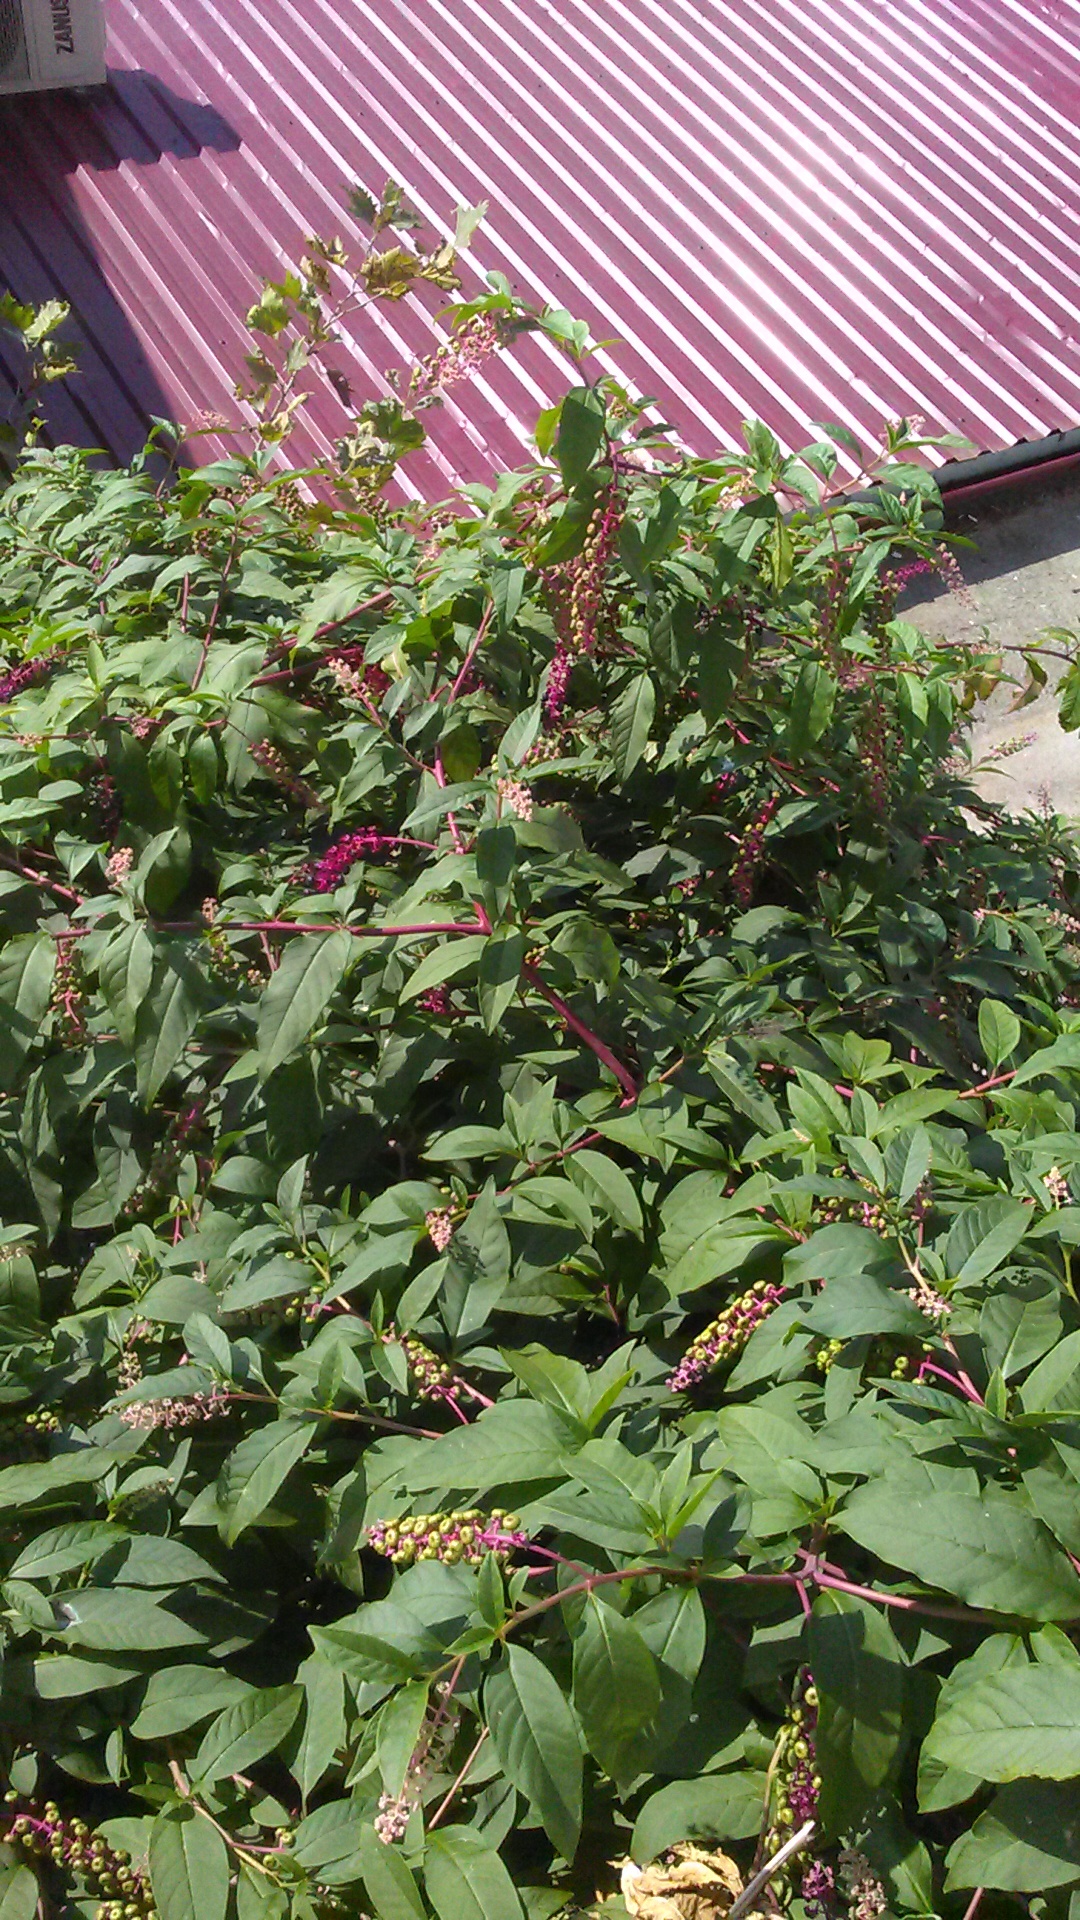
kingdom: Plantae
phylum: Tracheophyta
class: Magnoliopsida
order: Caryophyllales
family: Phytolaccaceae
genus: Phytolacca
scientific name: Phytolacca americana
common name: American pokeweed
